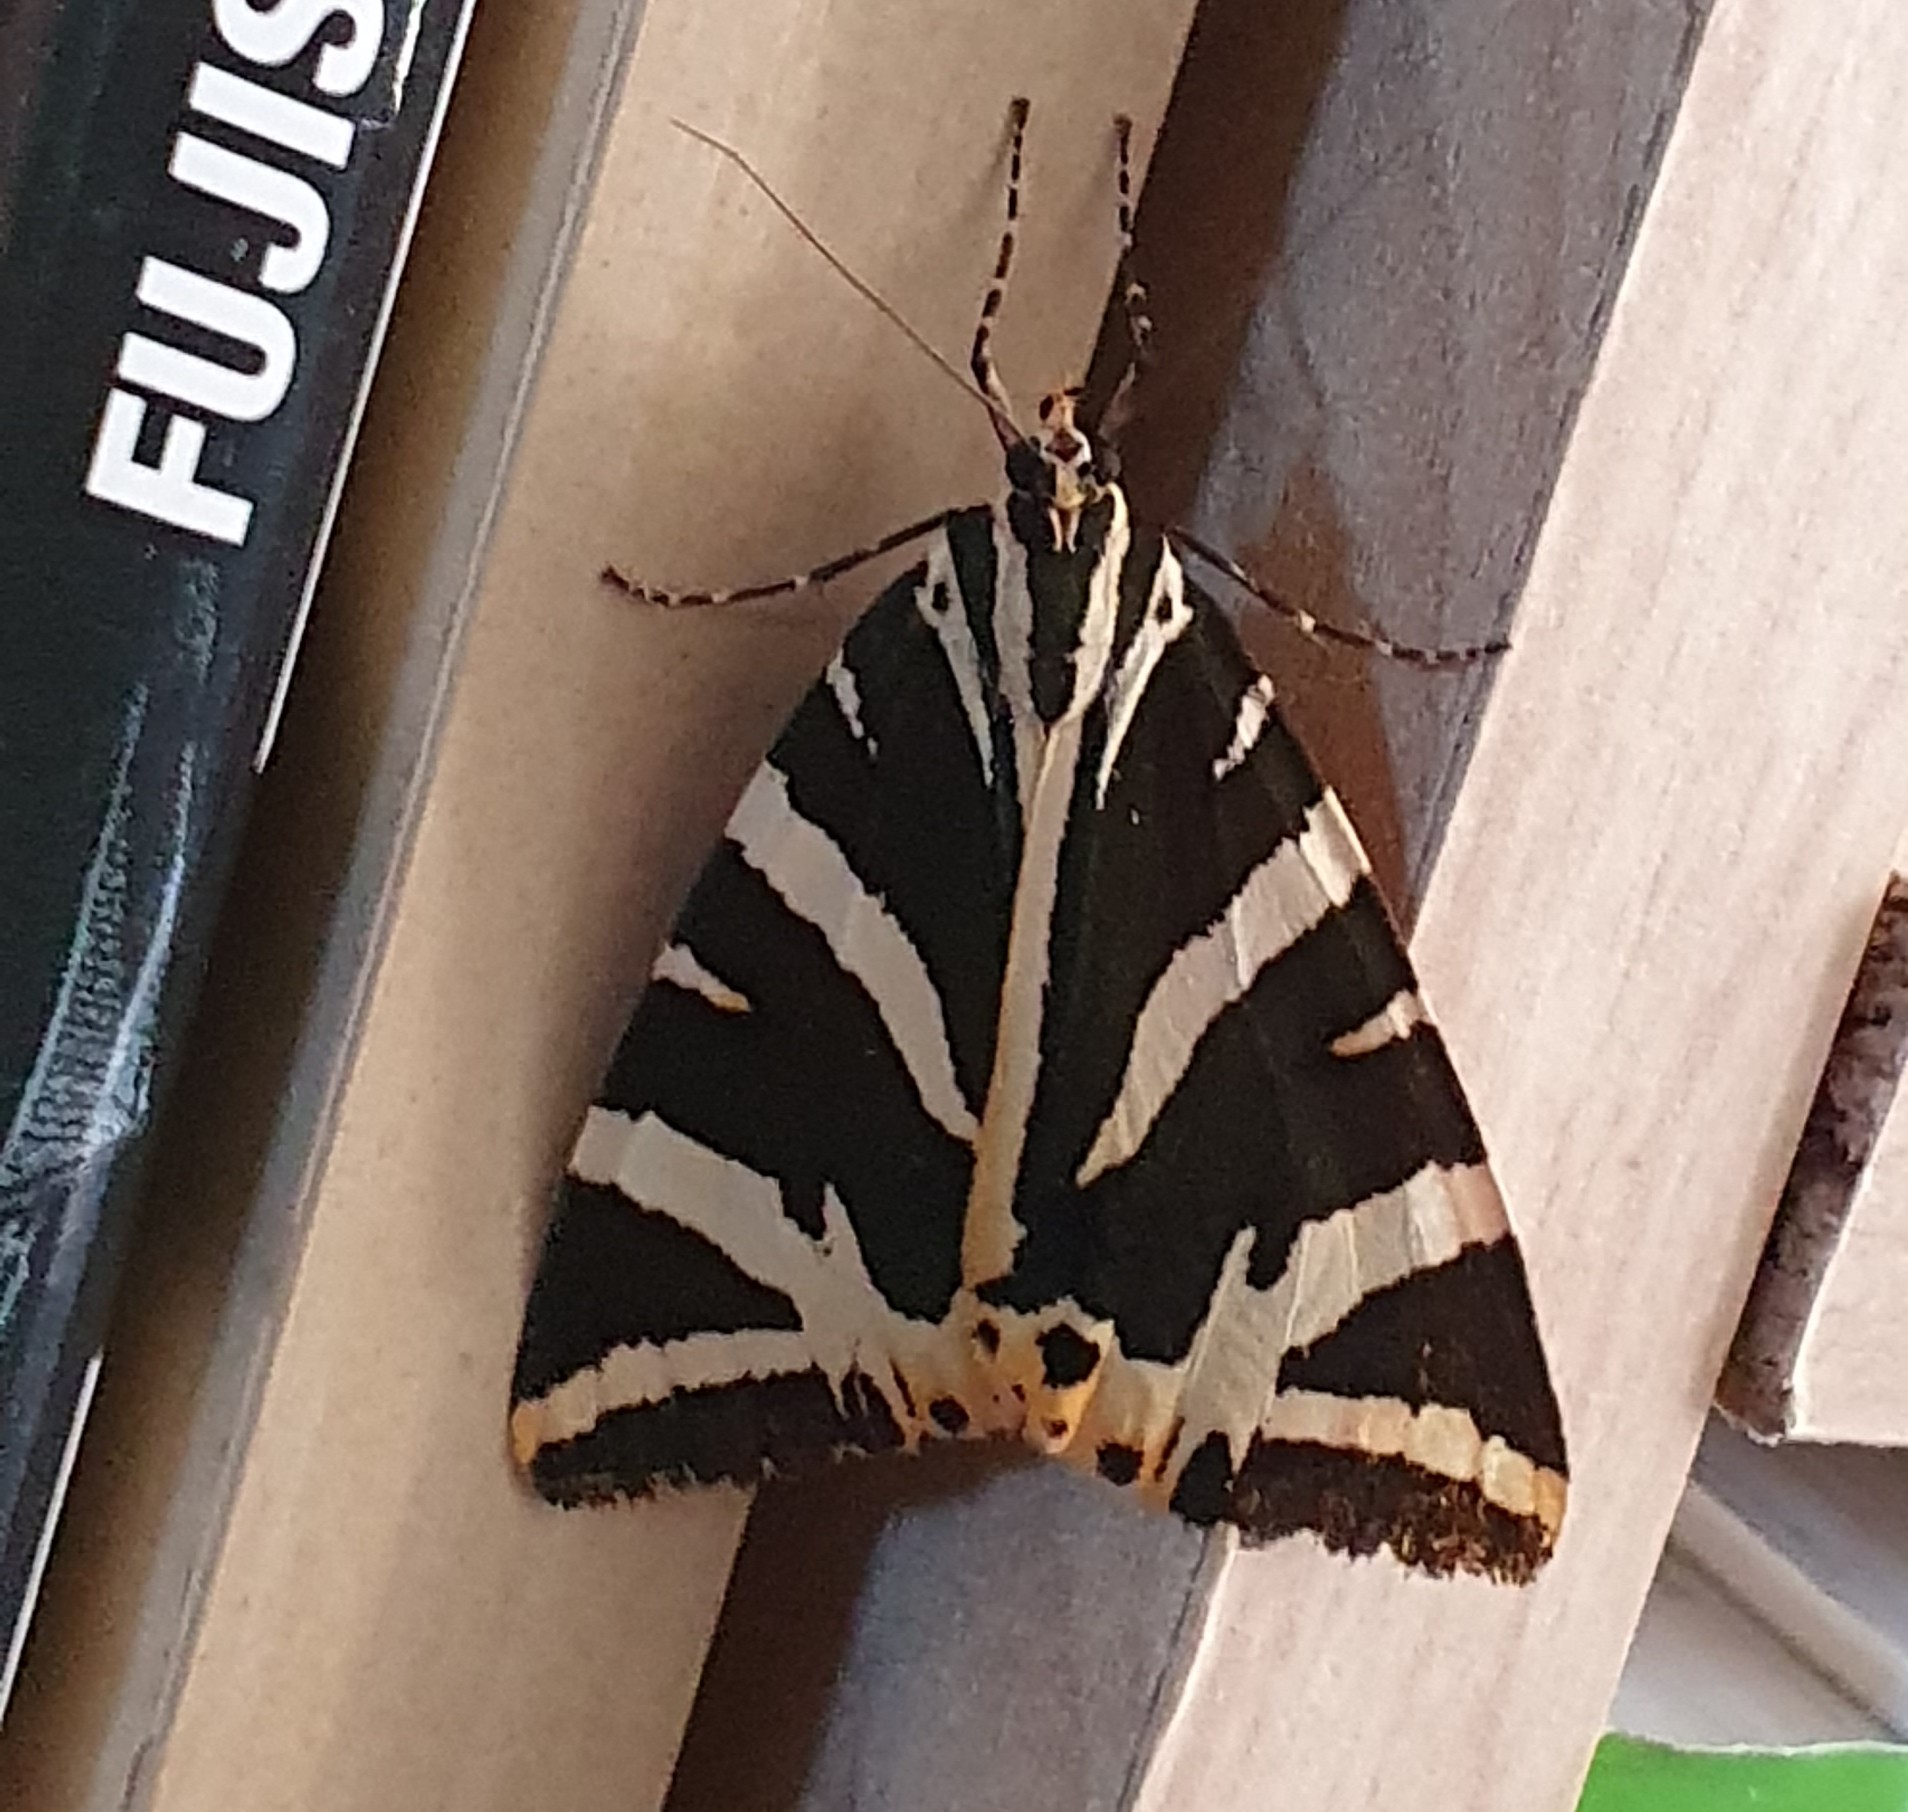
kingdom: Animalia
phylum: Arthropoda
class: Insecta
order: Lepidoptera
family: Erebidae
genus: Euplagia
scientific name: Euplagia quadripunctaria
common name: Jersey tiger
